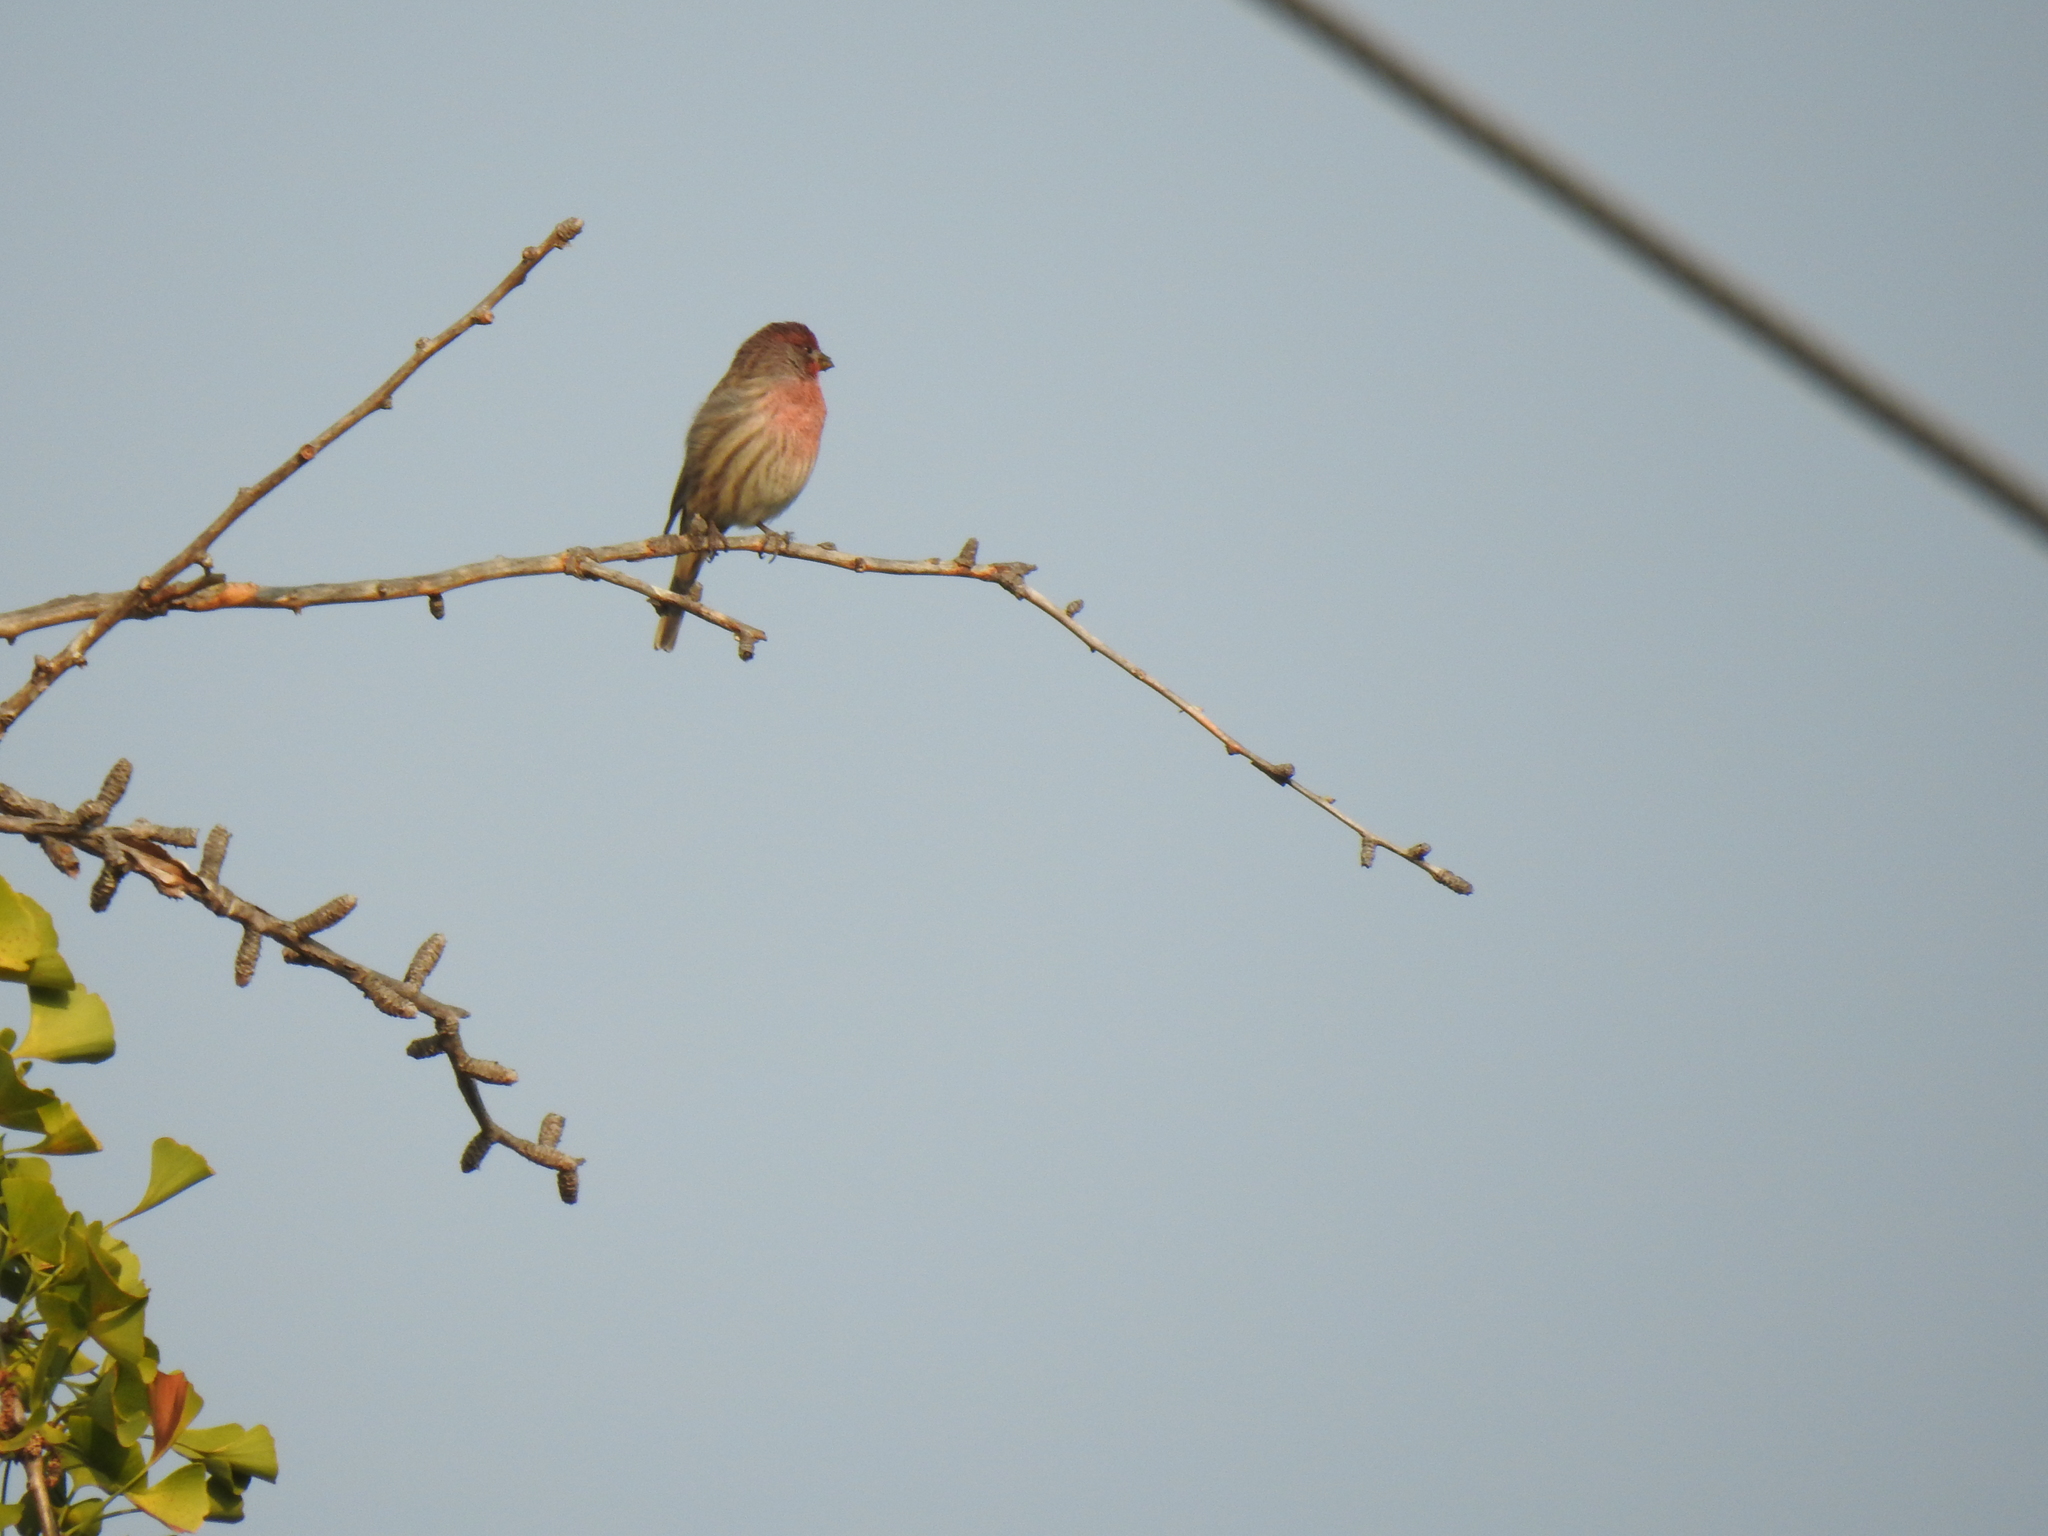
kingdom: Animalia
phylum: Chordata
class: Aves
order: Passeriformes
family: Fringillidae
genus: Haemorhous
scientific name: Haemorhous mexicanus
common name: House finch
